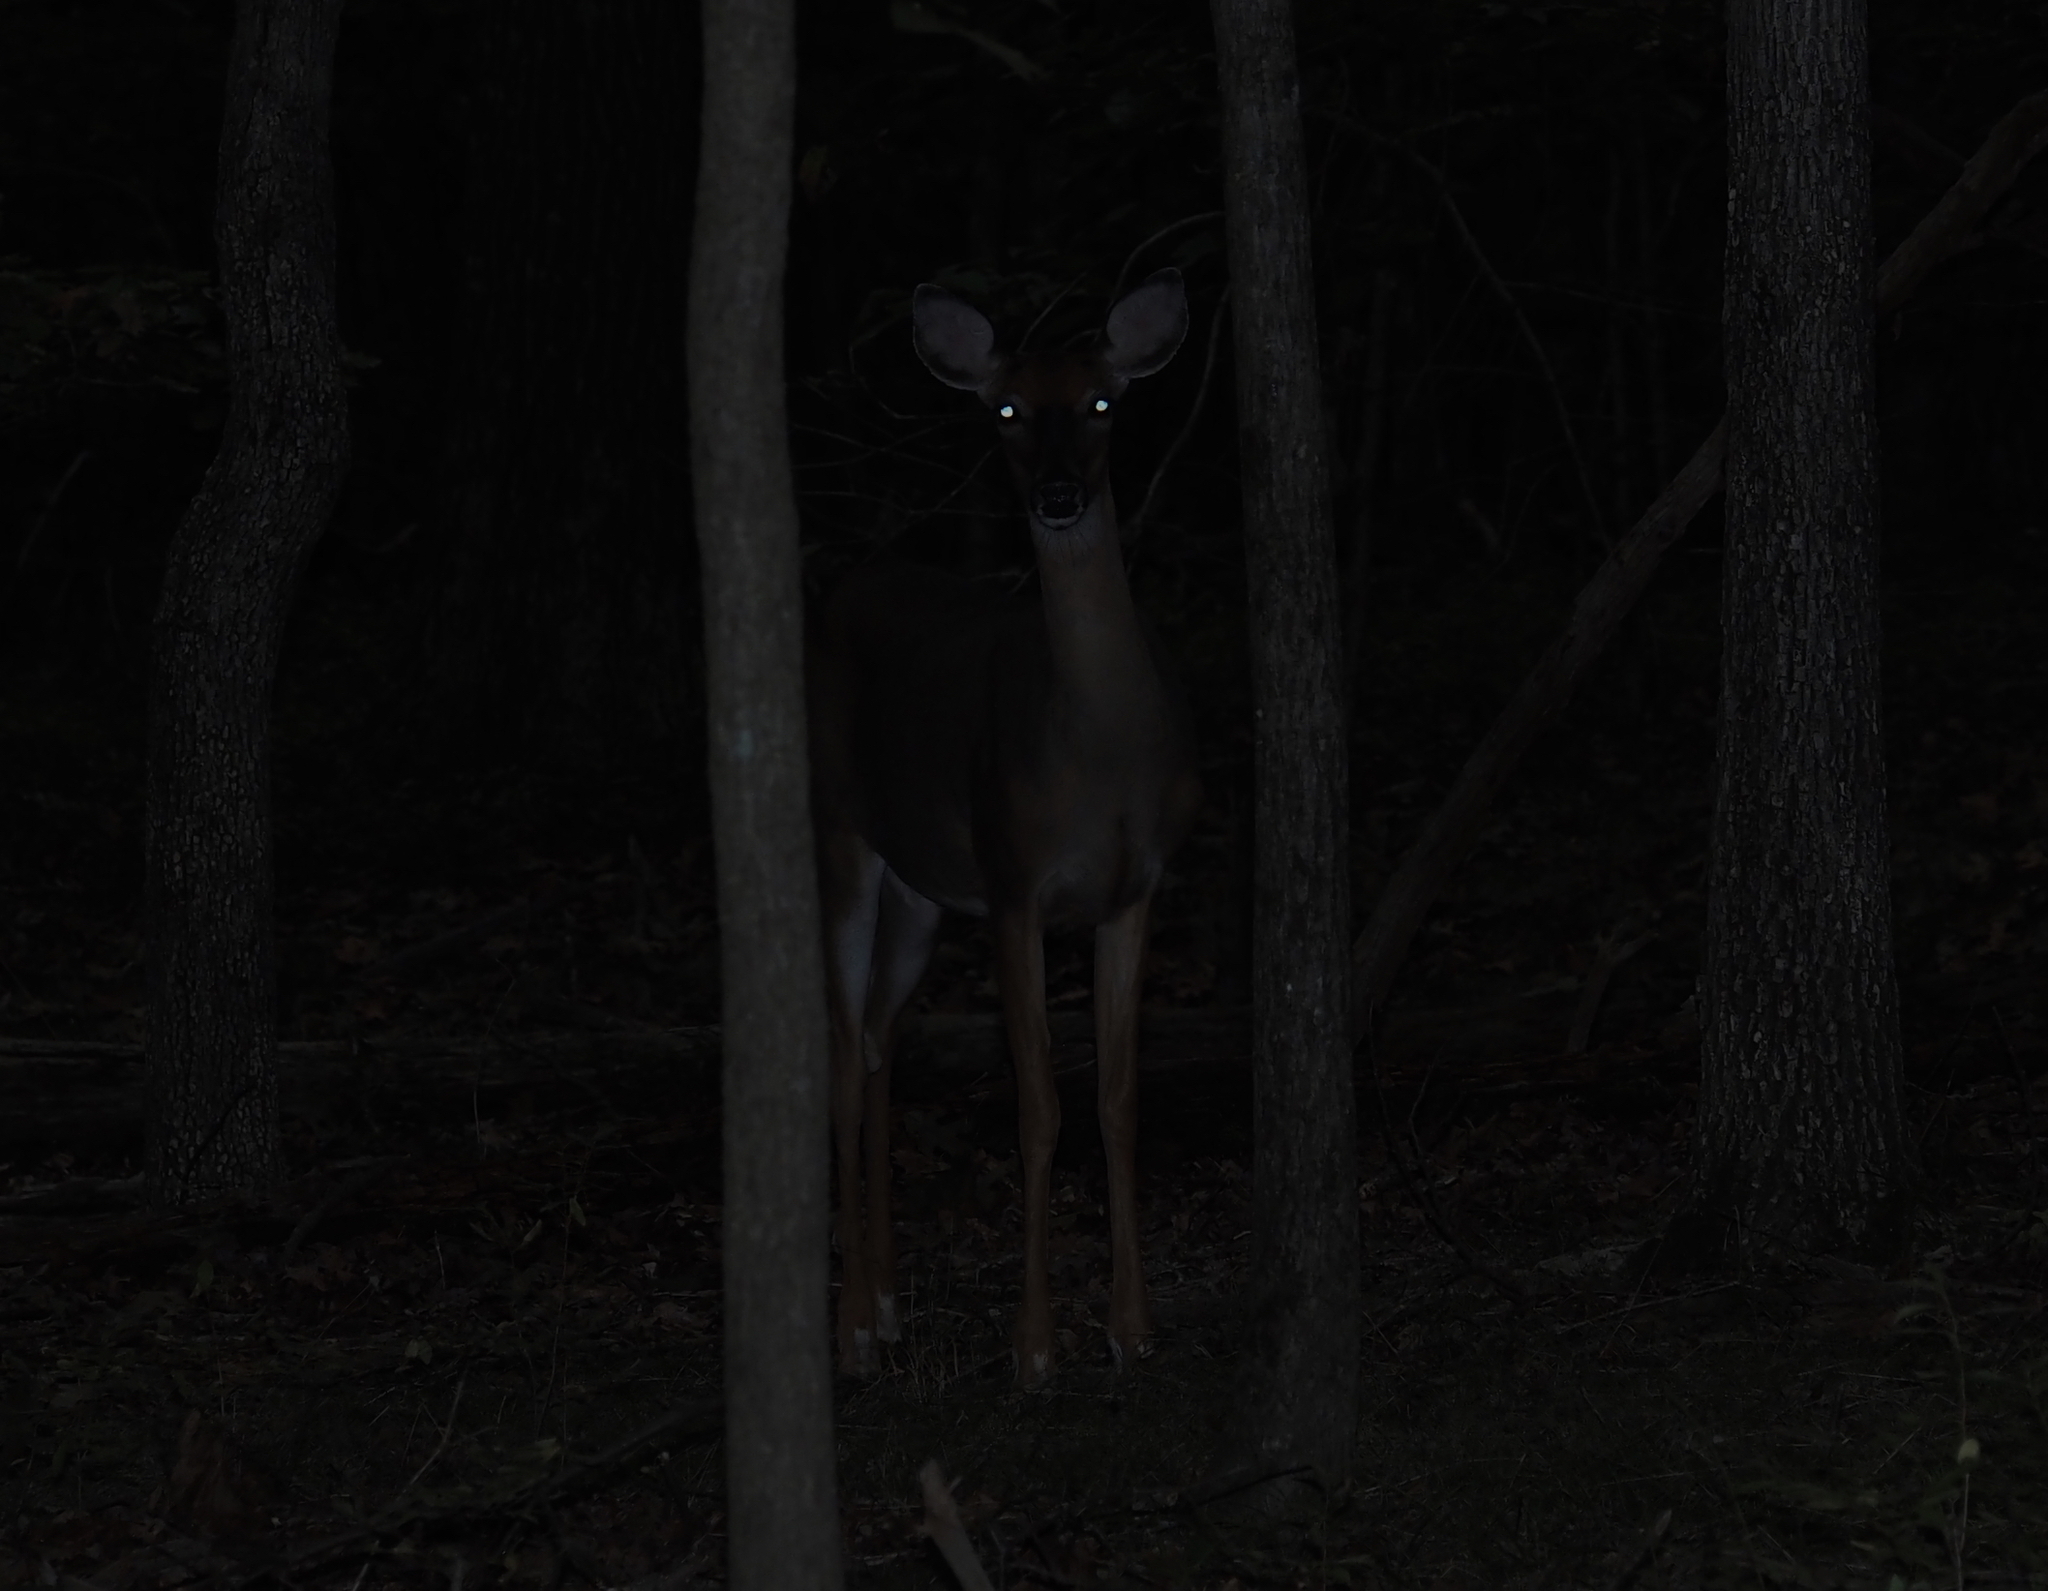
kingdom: Animalia
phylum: Chordata
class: Mammalia
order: Artiodactyla
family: Cervidae
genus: Odocoileus
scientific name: Odocoileus virginianus
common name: White-tailed deer
